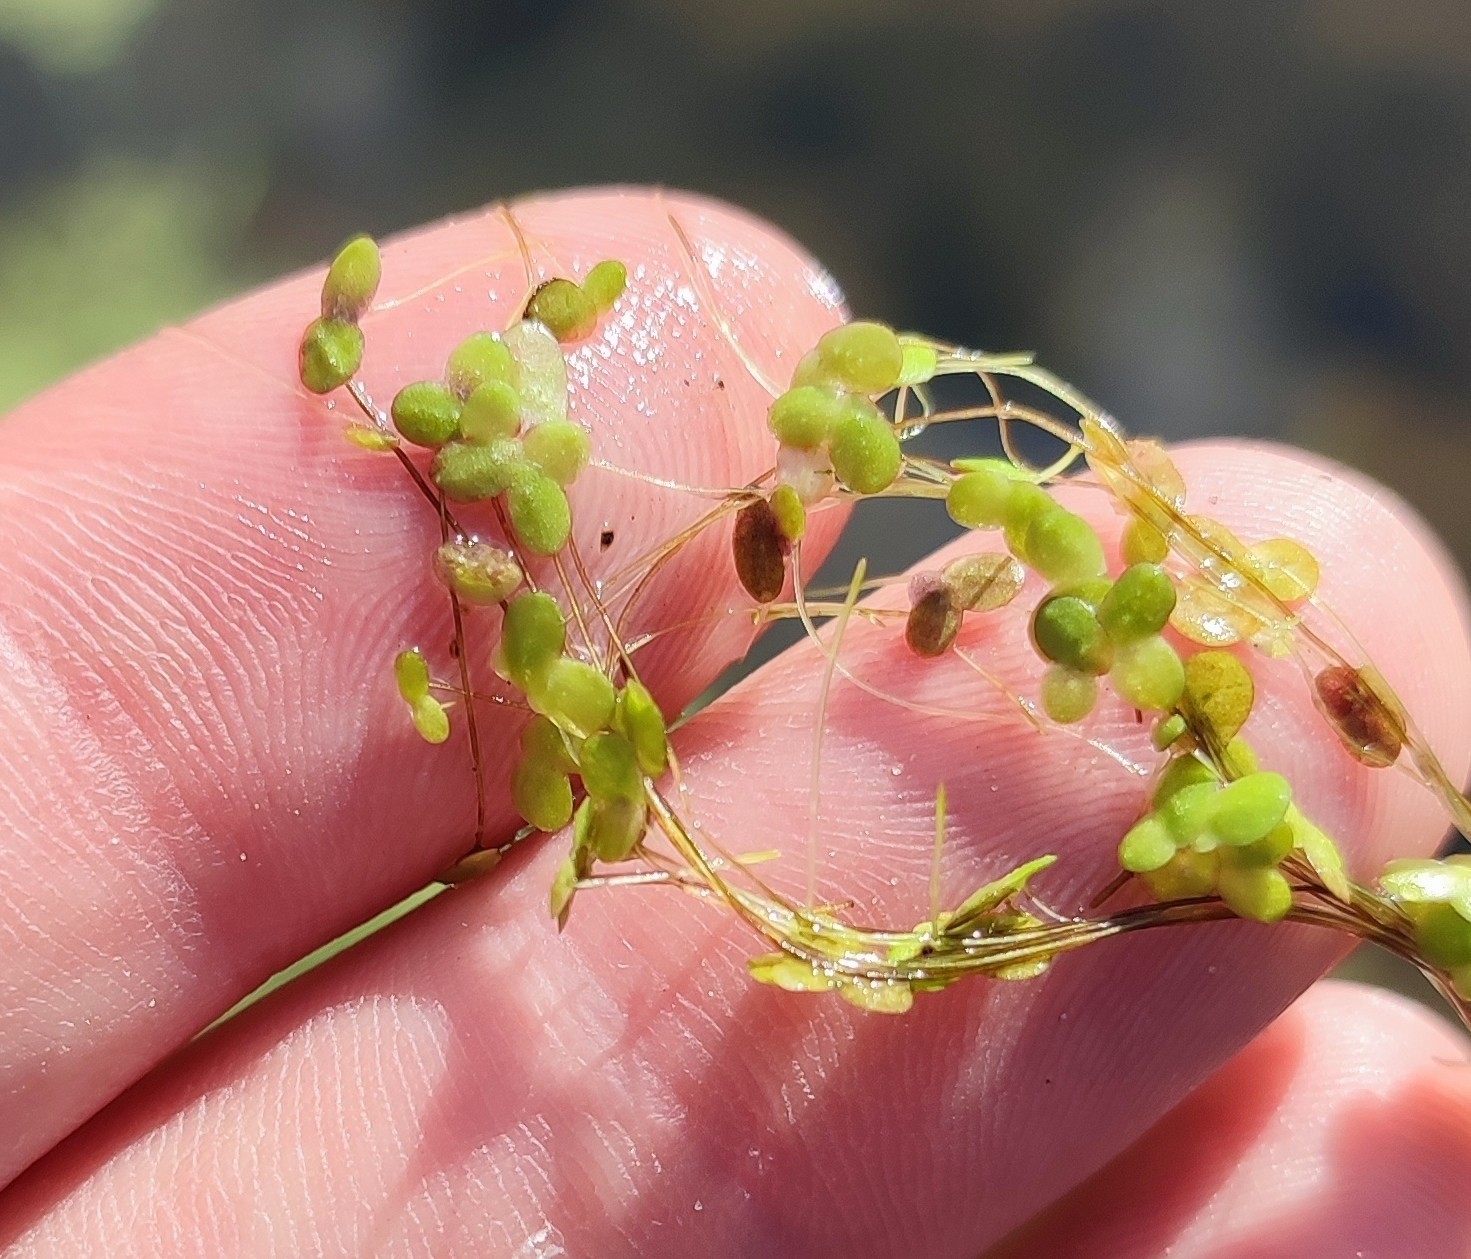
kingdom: Plantae
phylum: Tracheophyta
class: Liliopsida
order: Alismatales
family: Araceae
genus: Lemna
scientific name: Lemna minor
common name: Common duckweed
